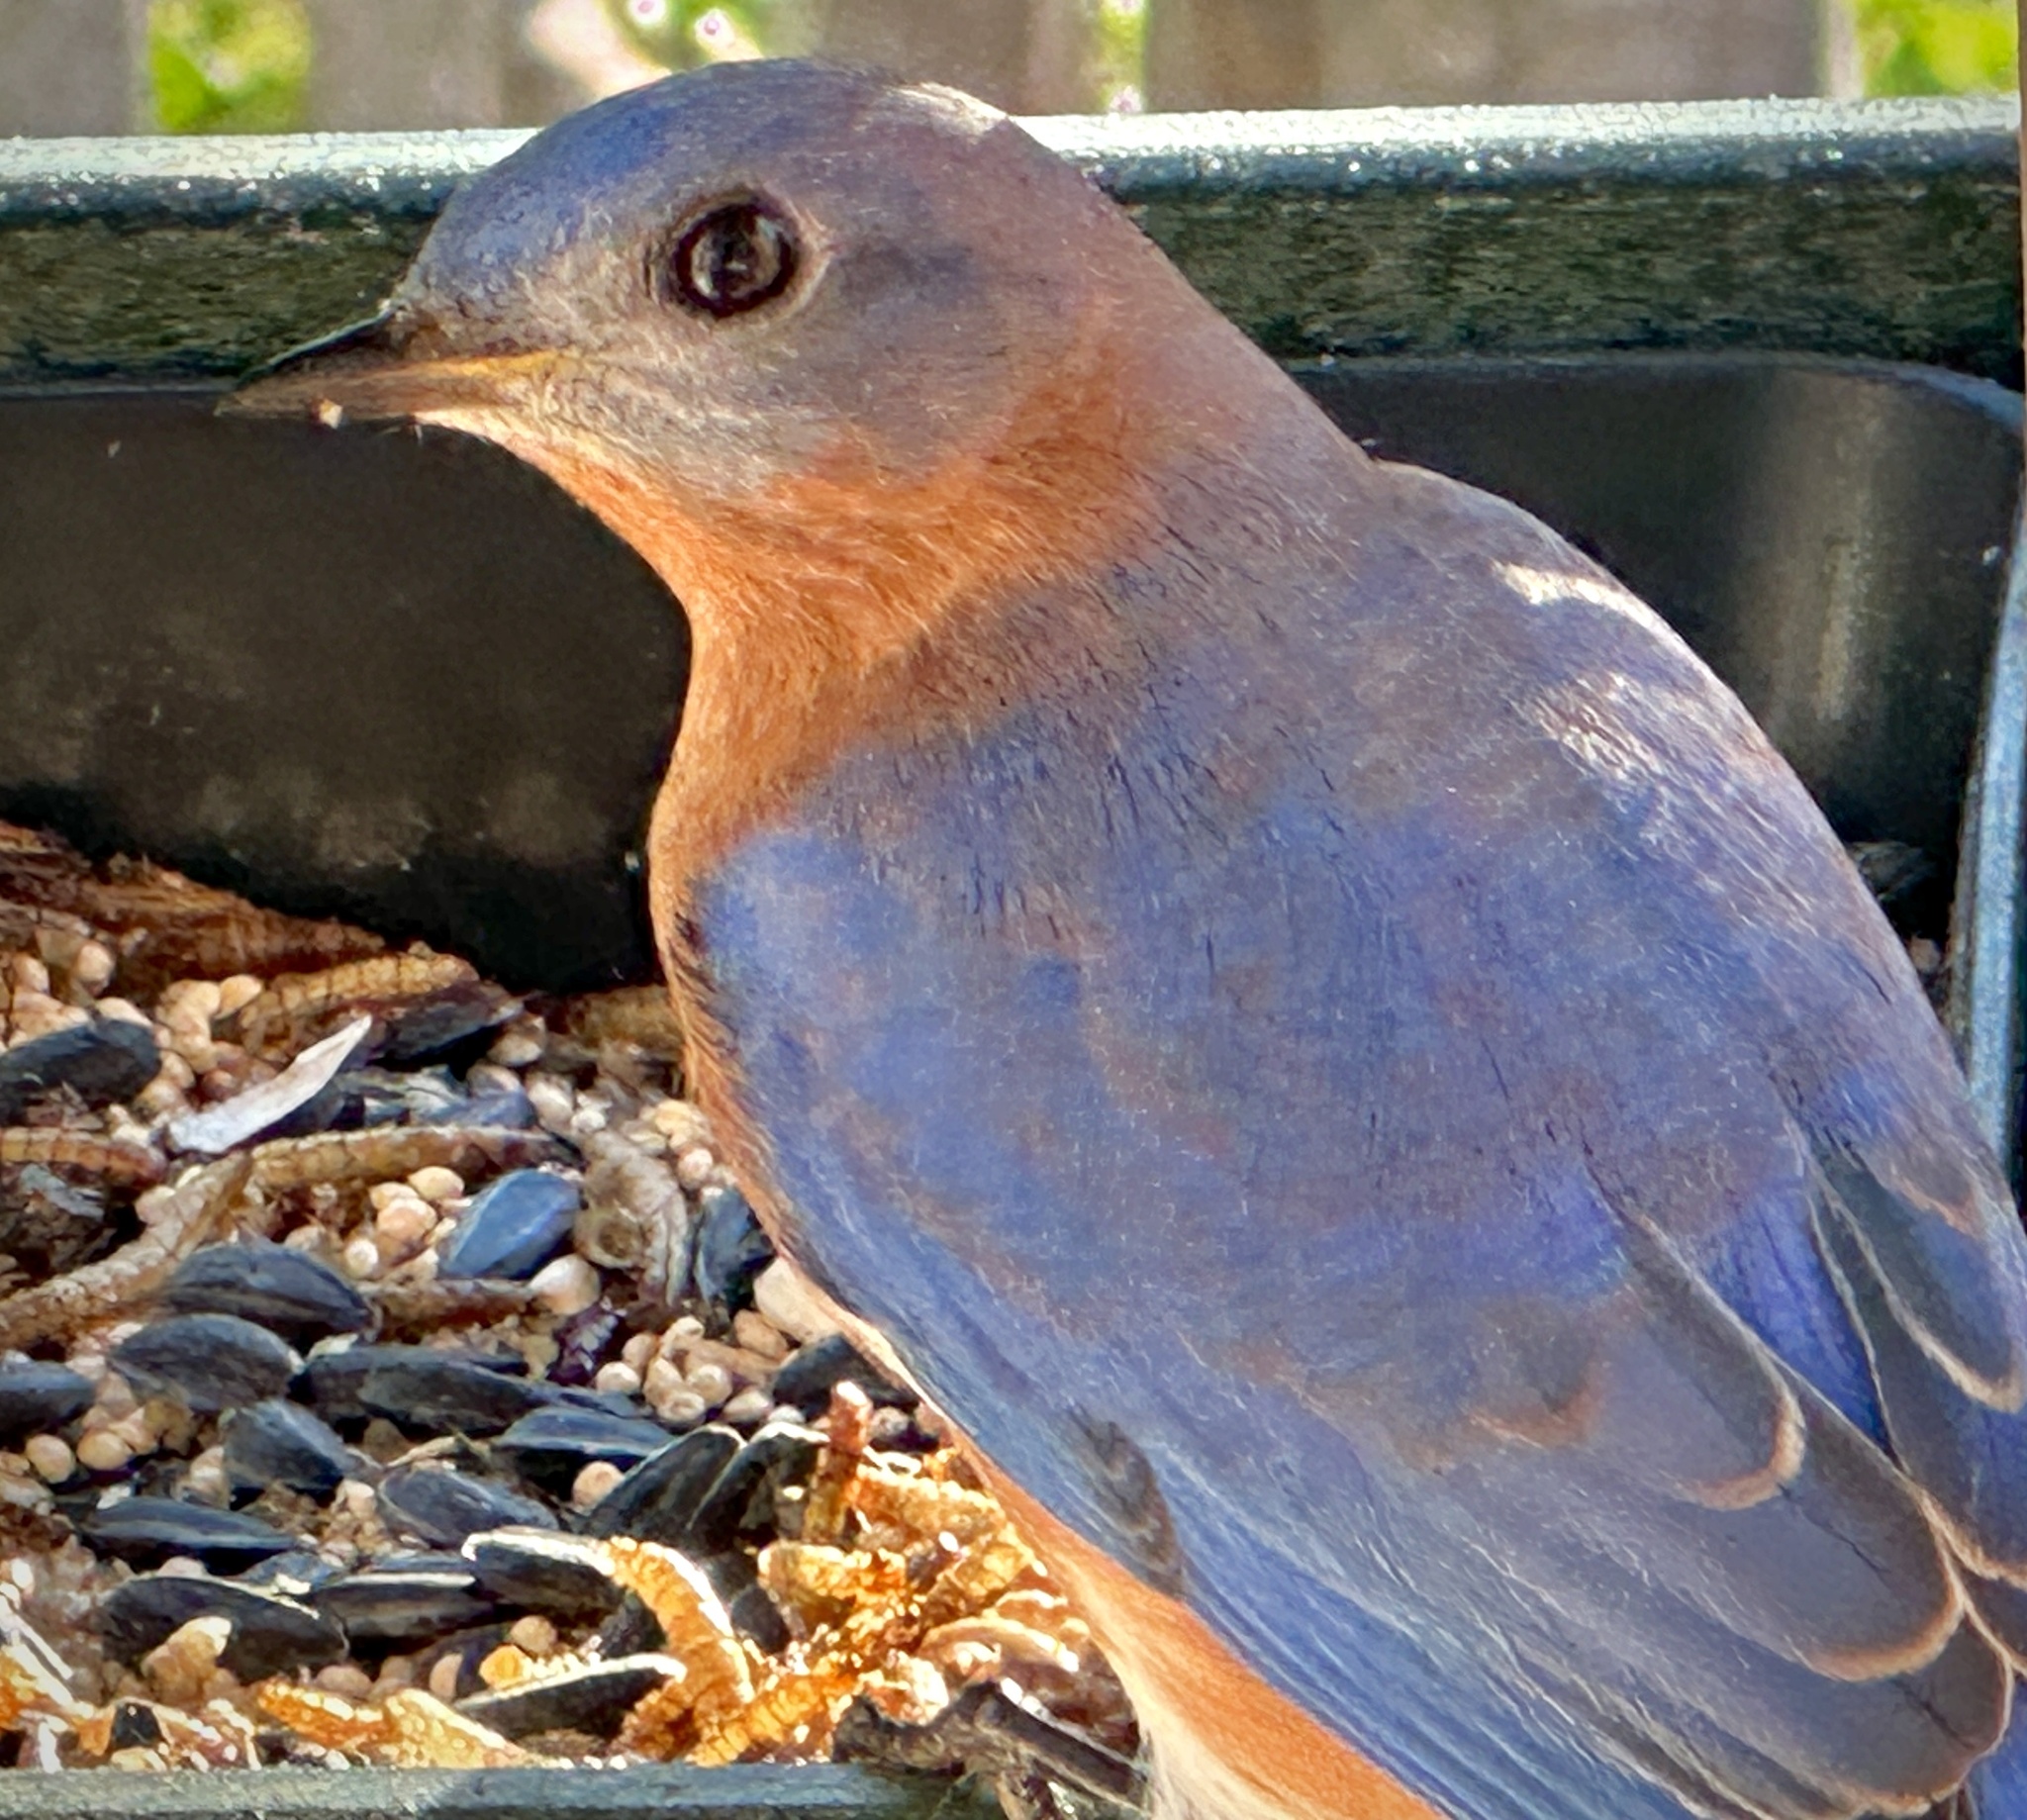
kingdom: Animalia
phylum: Chordata
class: Aves
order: Passeriformes
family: Turdidae
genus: Sialia
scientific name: Sialia sialis
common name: Eastern bluebird
